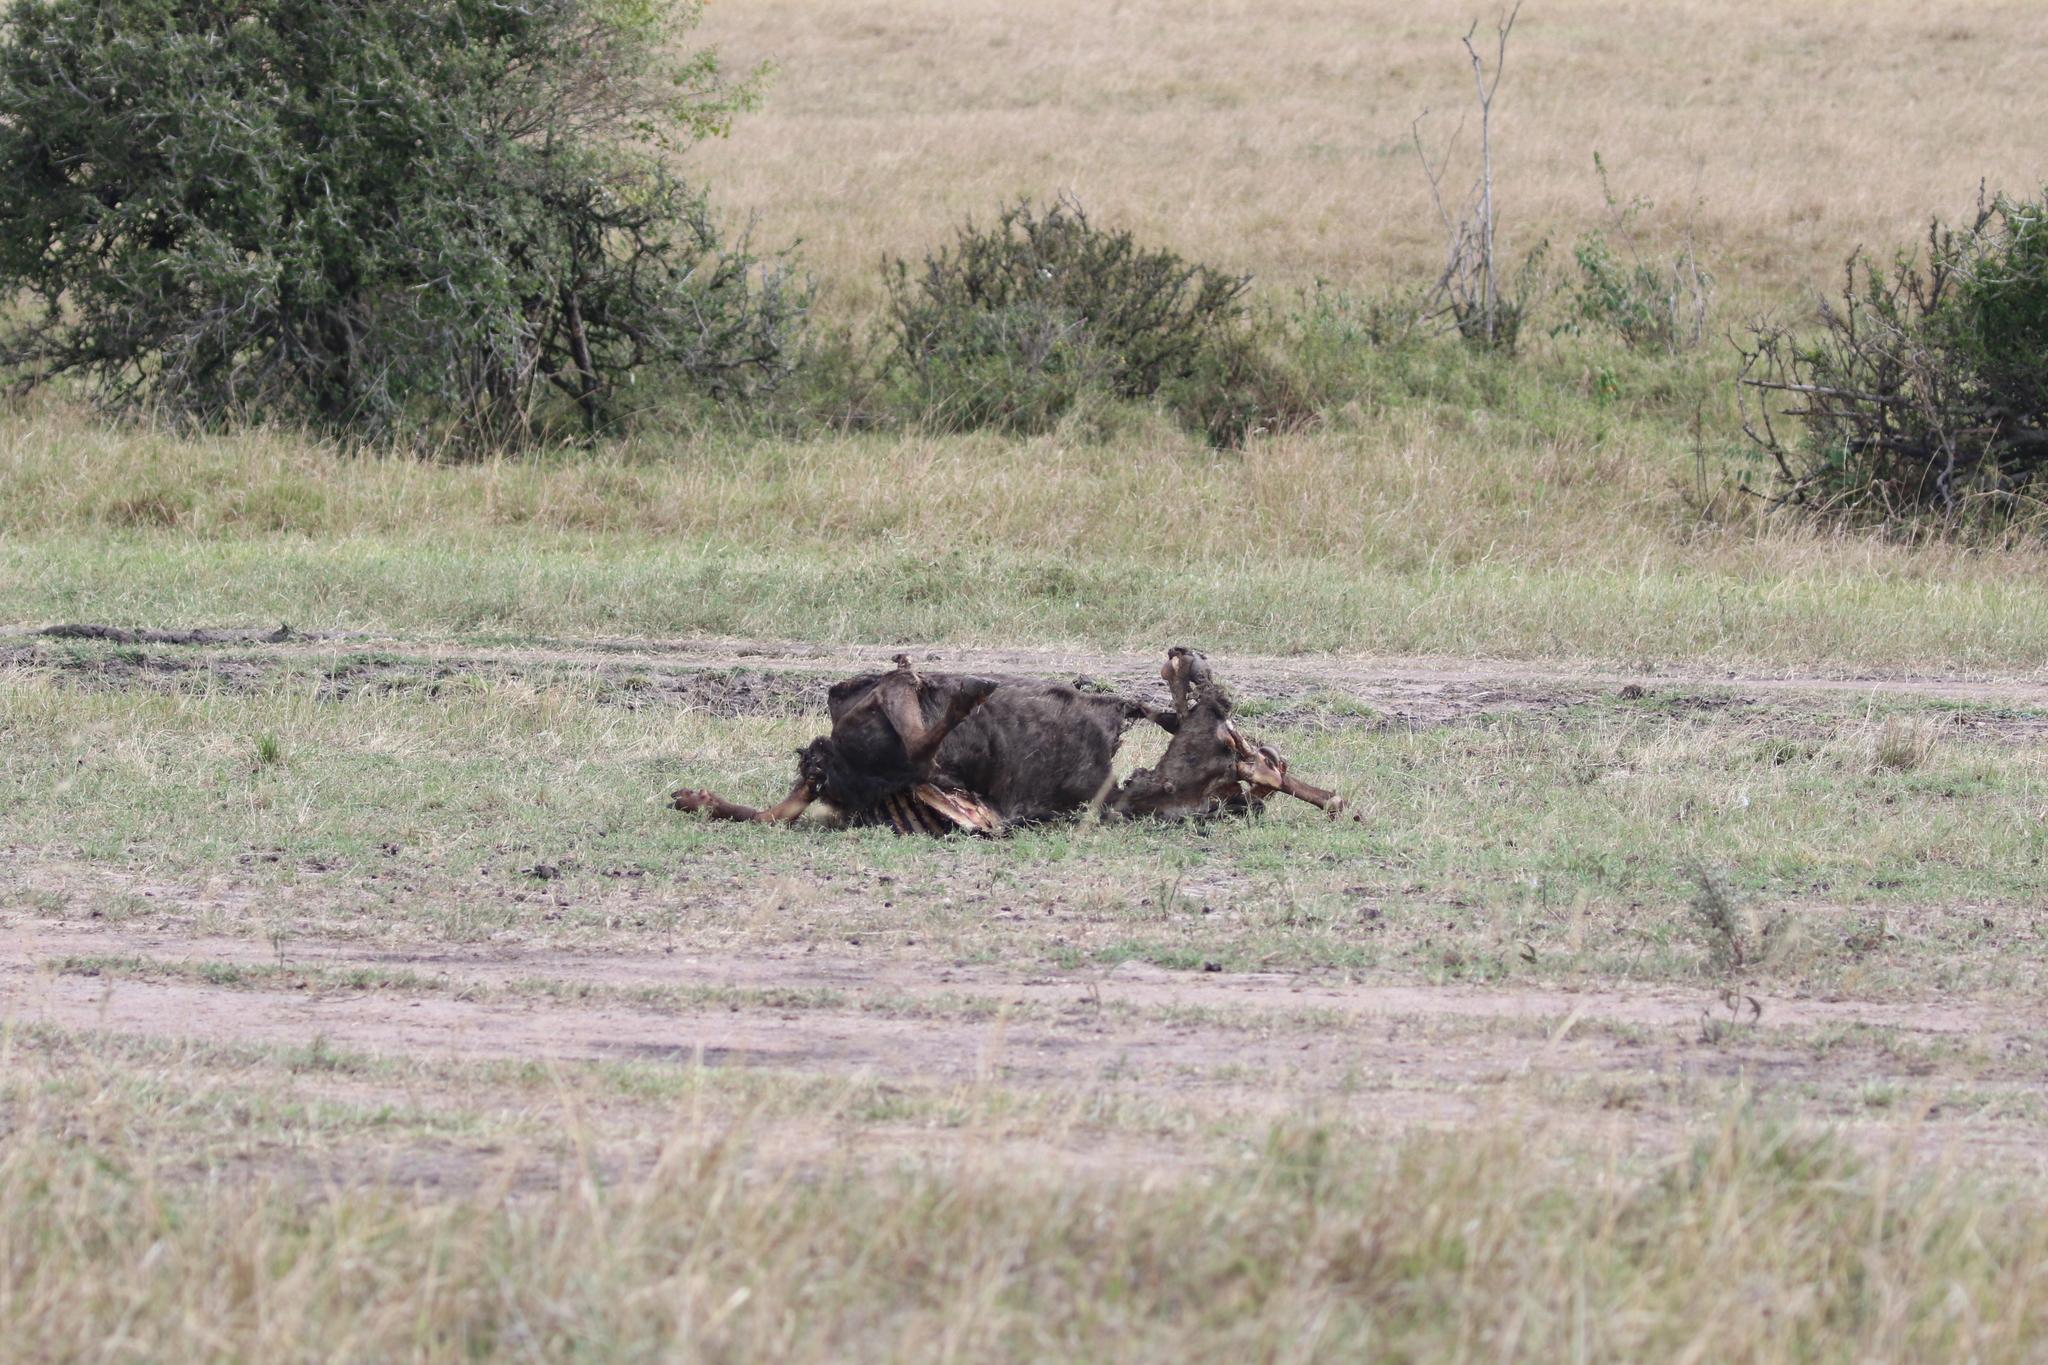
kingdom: Animalia
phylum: Chordata
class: Mammalia
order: Artiodactyla
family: Bovidae
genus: Connochaetes
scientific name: Connochaetes taurinus
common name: Blue wildebeest
